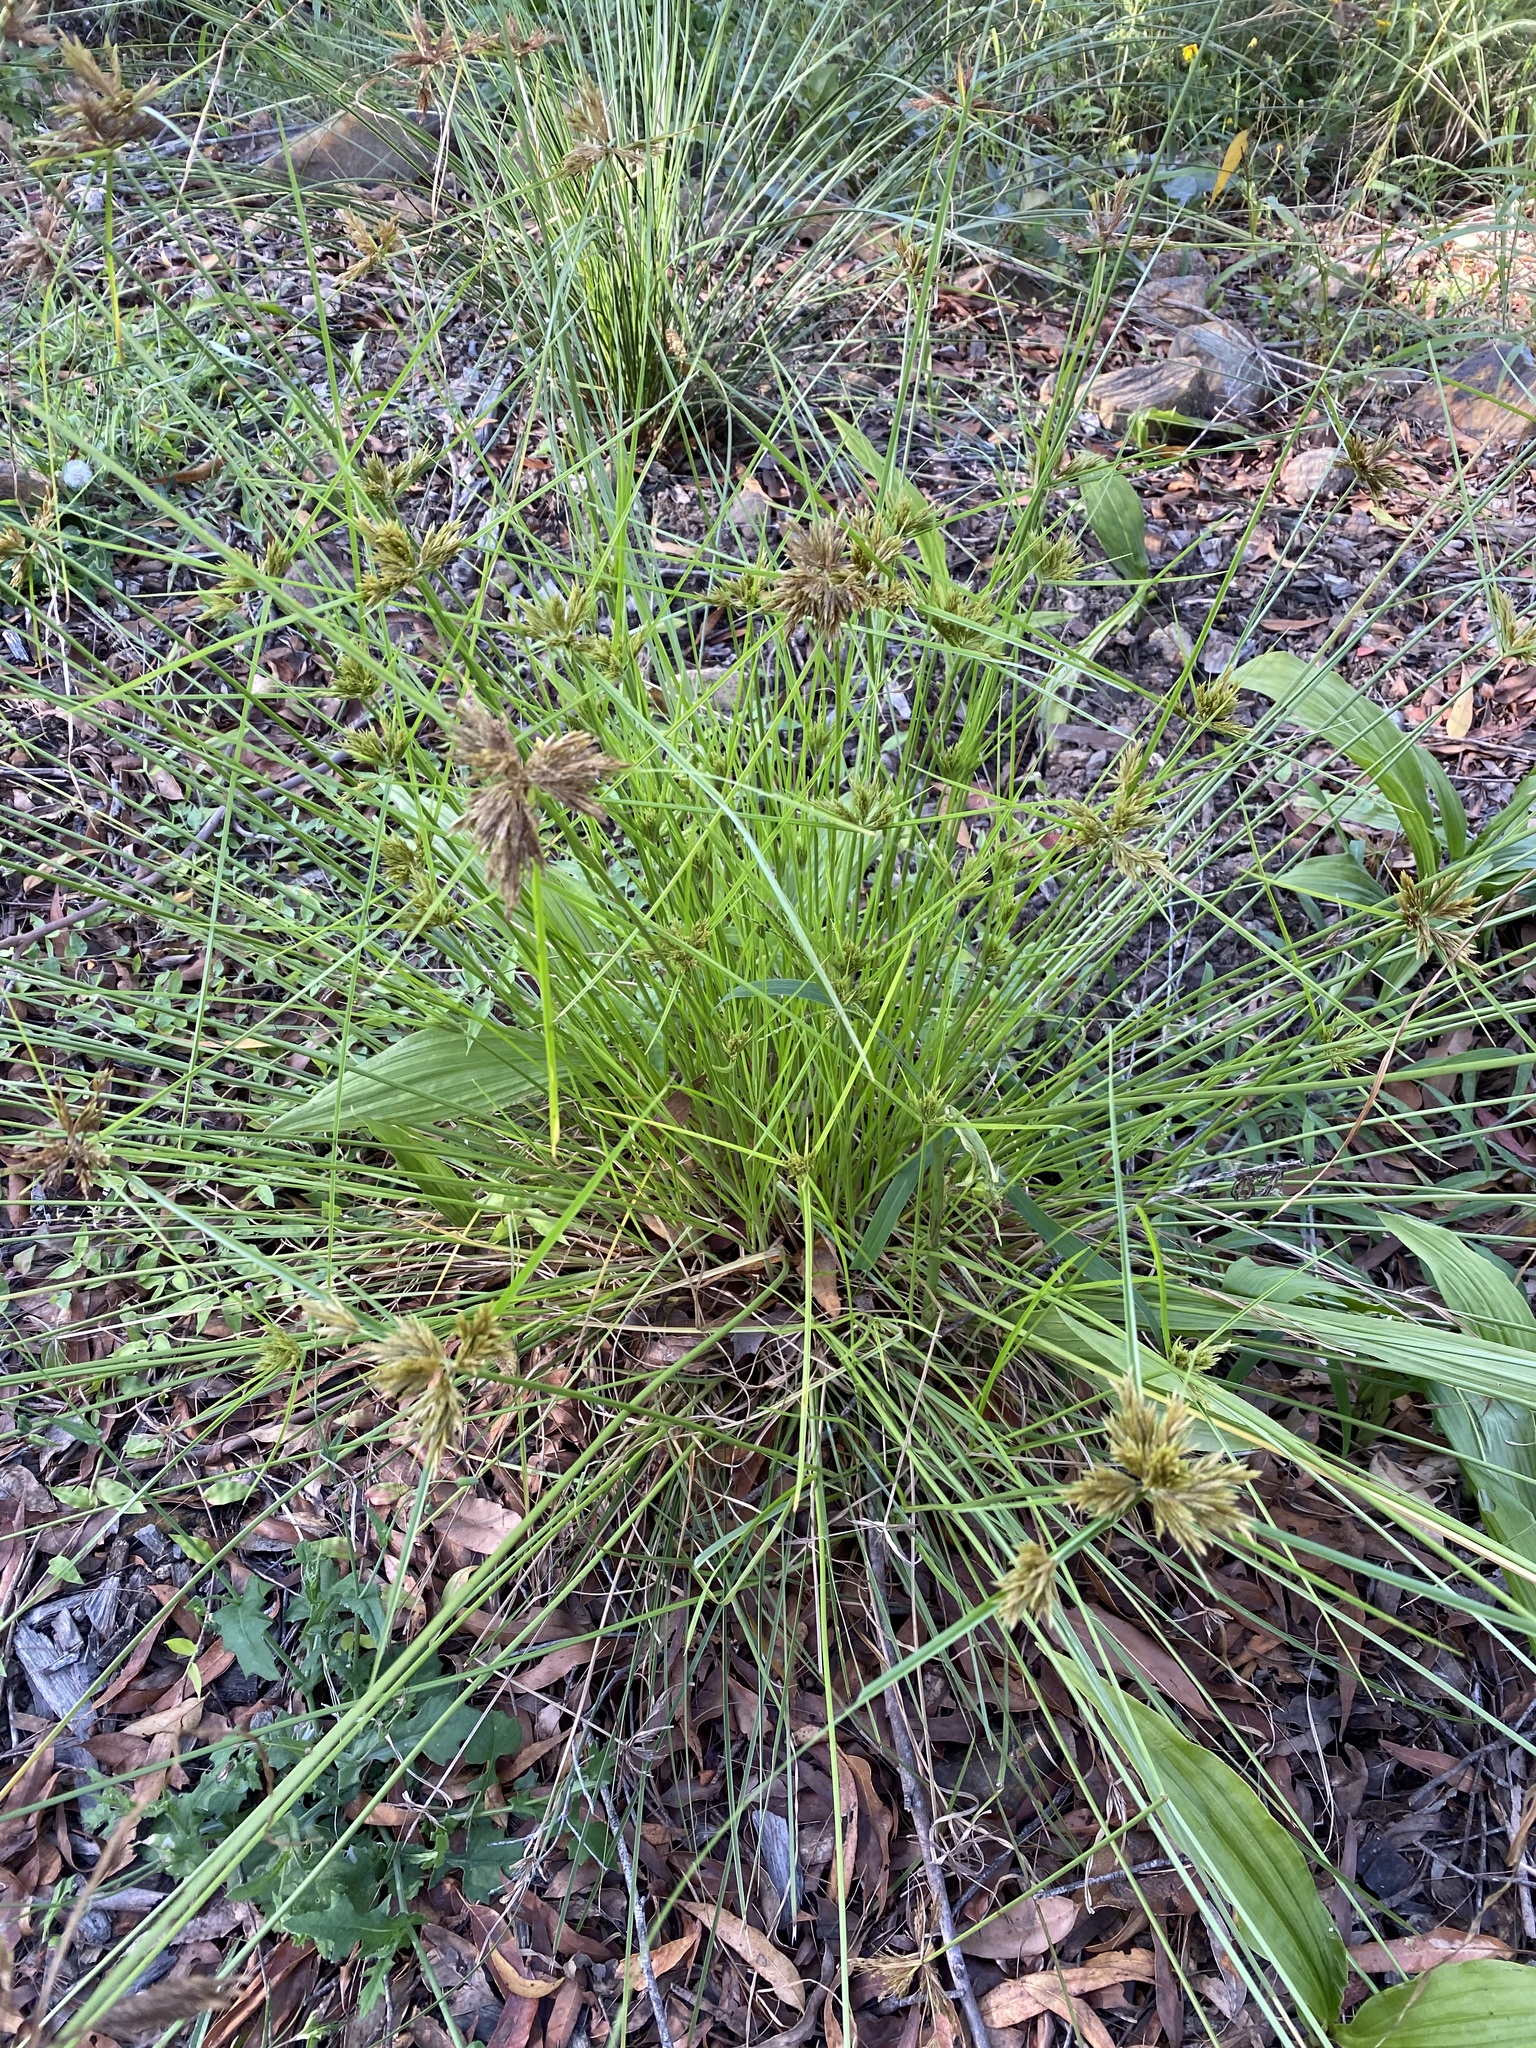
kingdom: Plantae
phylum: Tracheophyta
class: Liliopsida
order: Poales
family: Cyperaceae
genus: Cyperus
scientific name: Cyperus polystachyos
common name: Bunchy flat sedge
